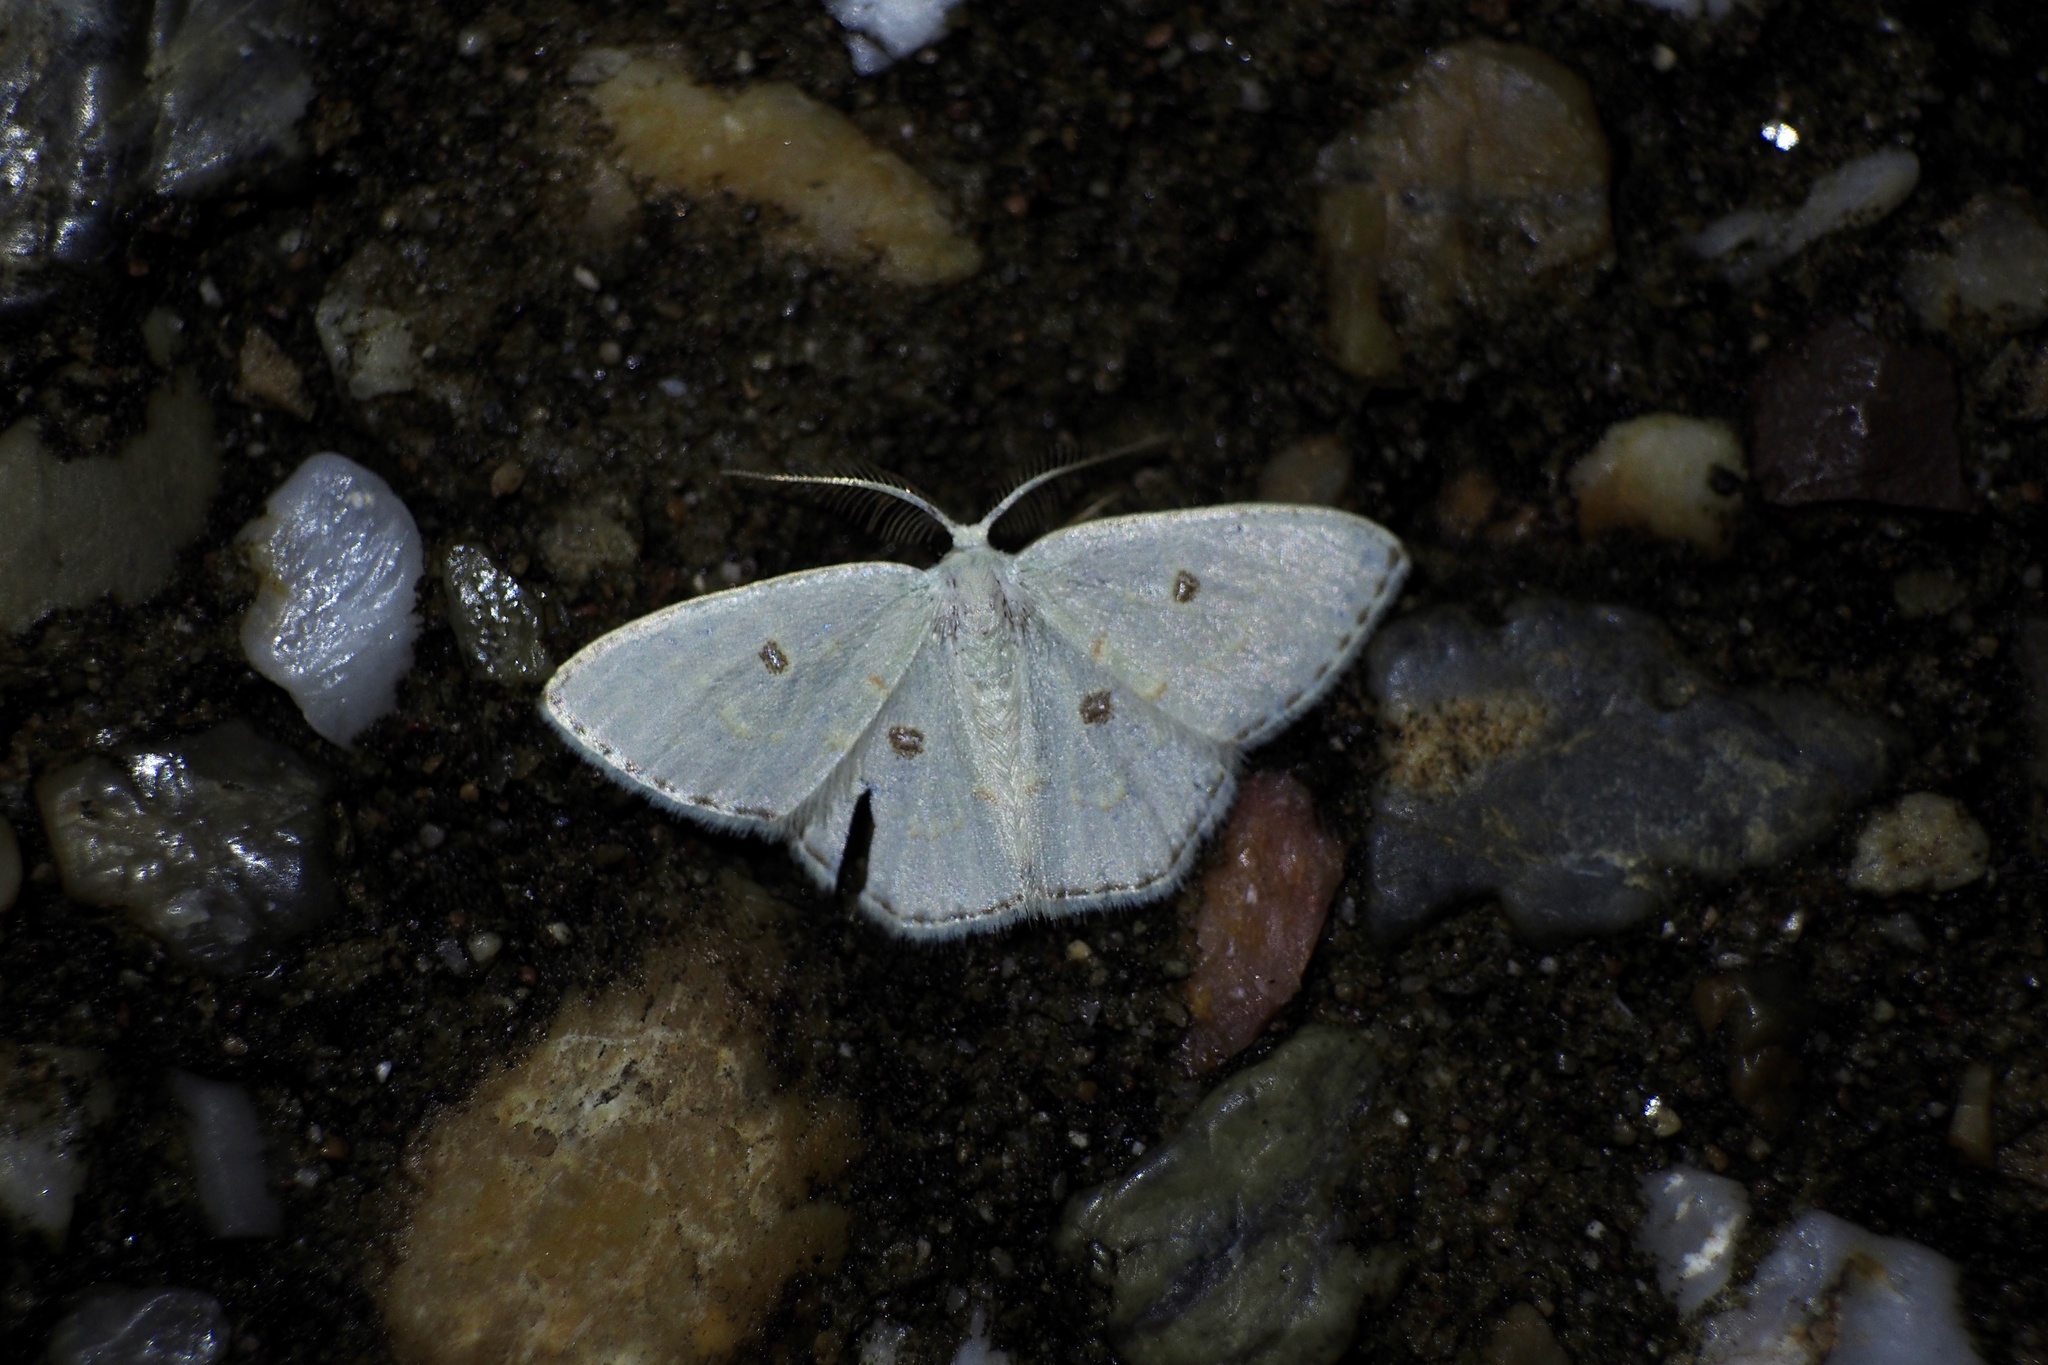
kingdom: Animalia
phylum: Arthropoda
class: Insecta
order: Lepidoptera
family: Geometridae
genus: Comostola
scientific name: Comostola subtiliaria
